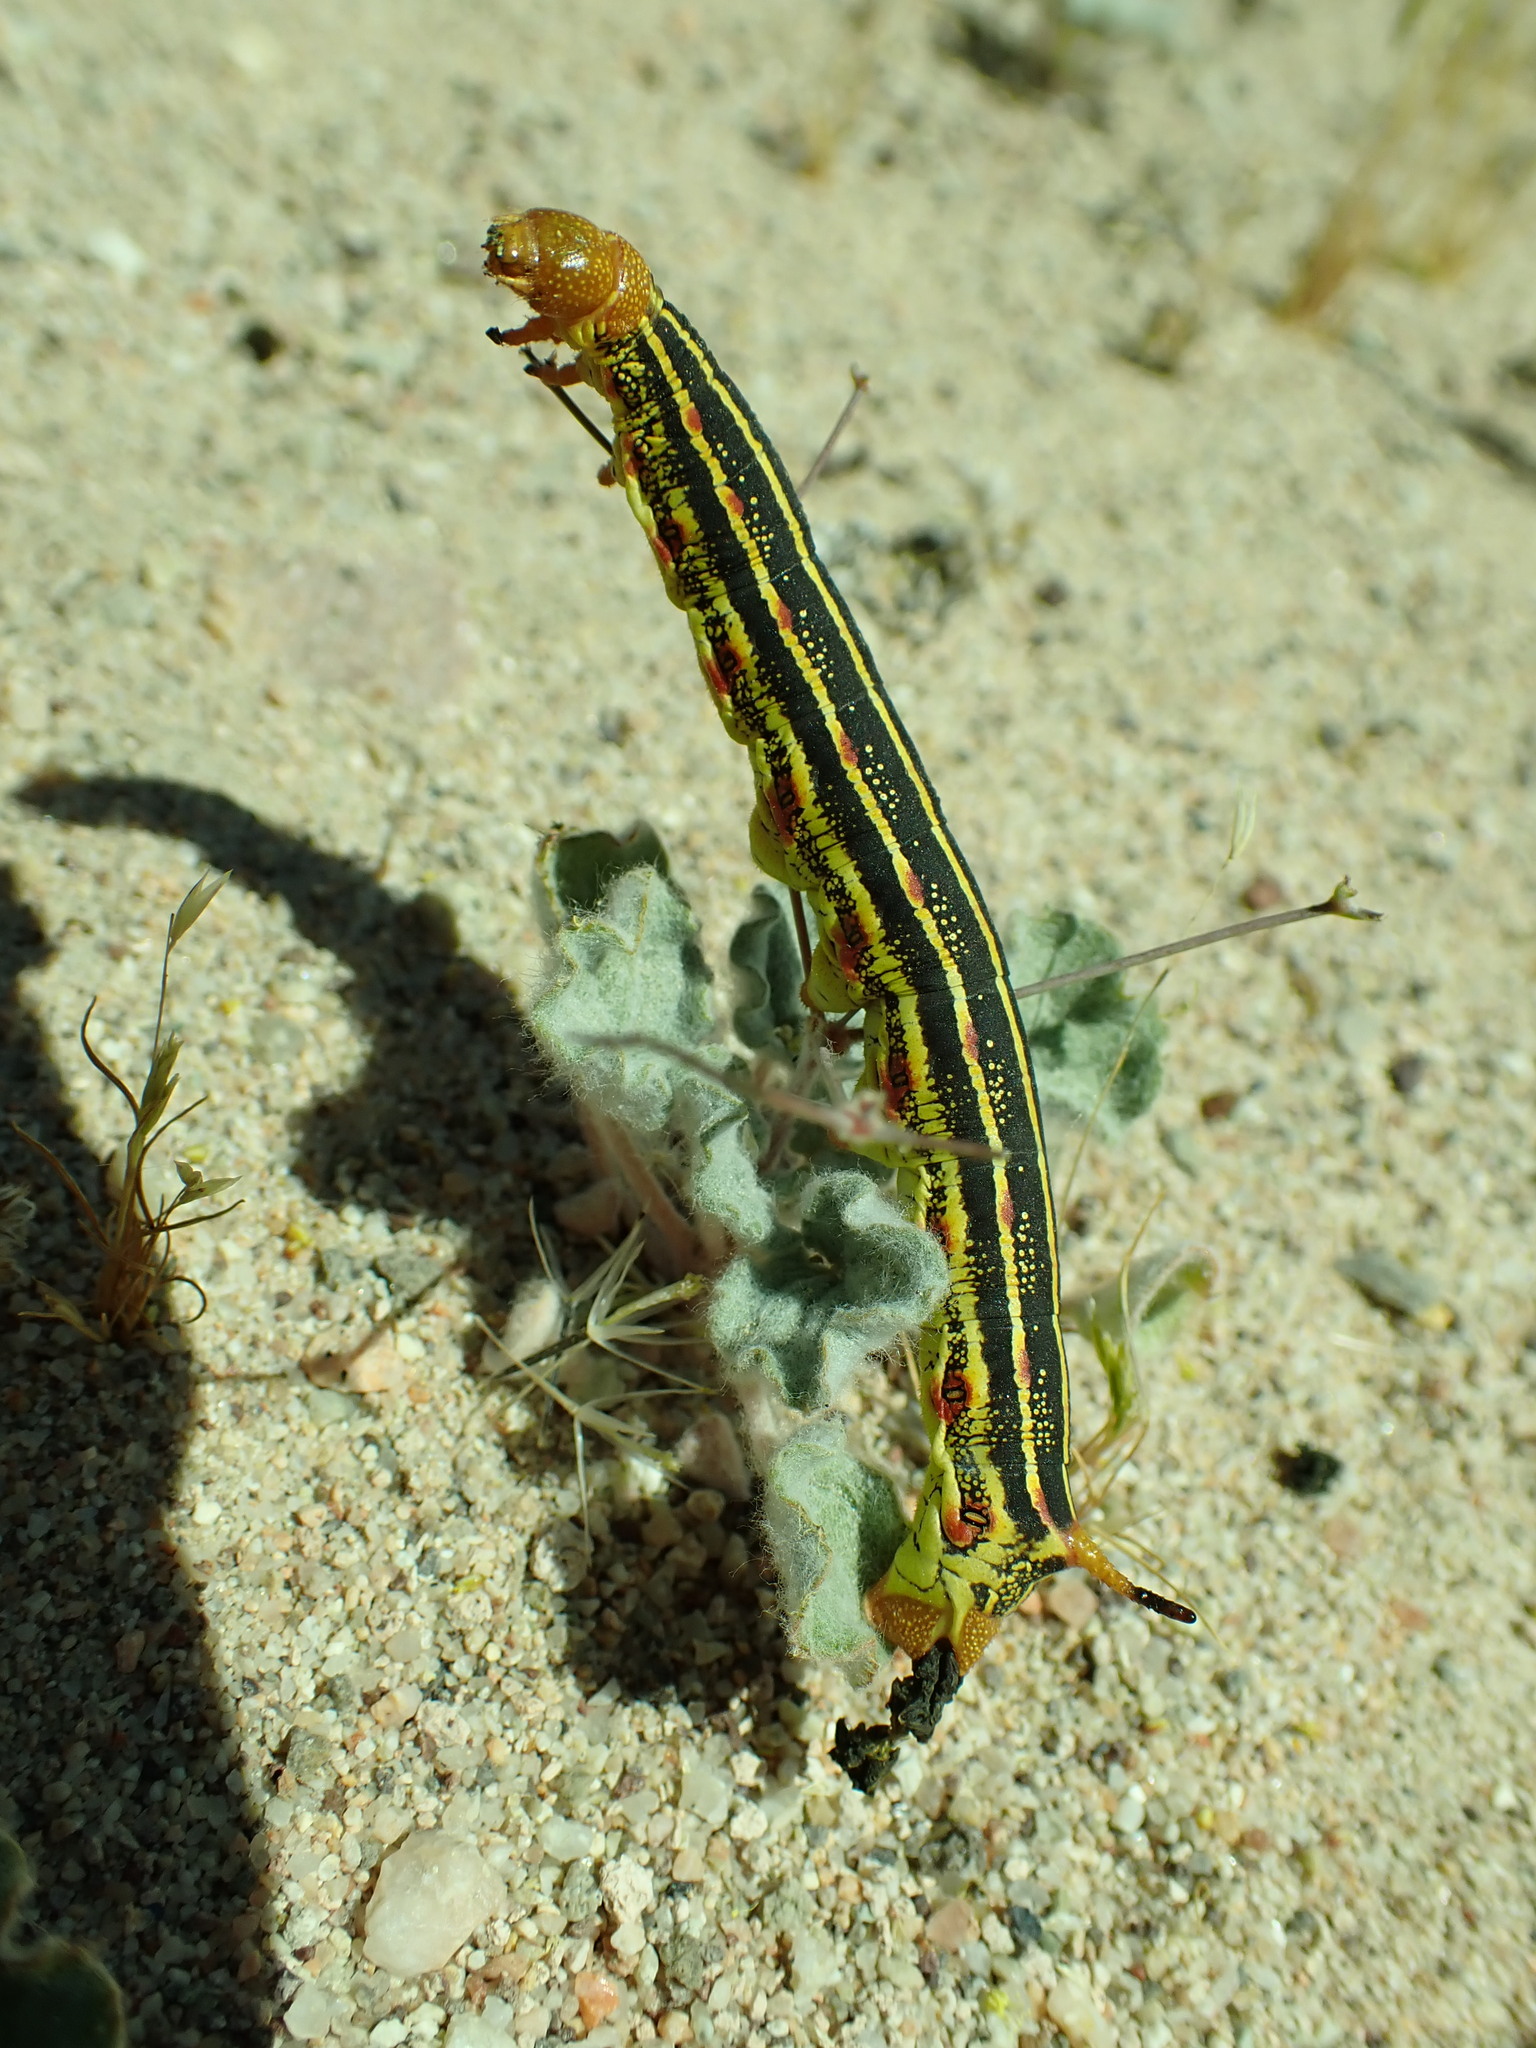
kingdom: Animalia
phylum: Arthropoda
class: Insecta
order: Lepidoptera
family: Sphingidae
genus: Hyles
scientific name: Hyles lineata
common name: White-lined sphinx
